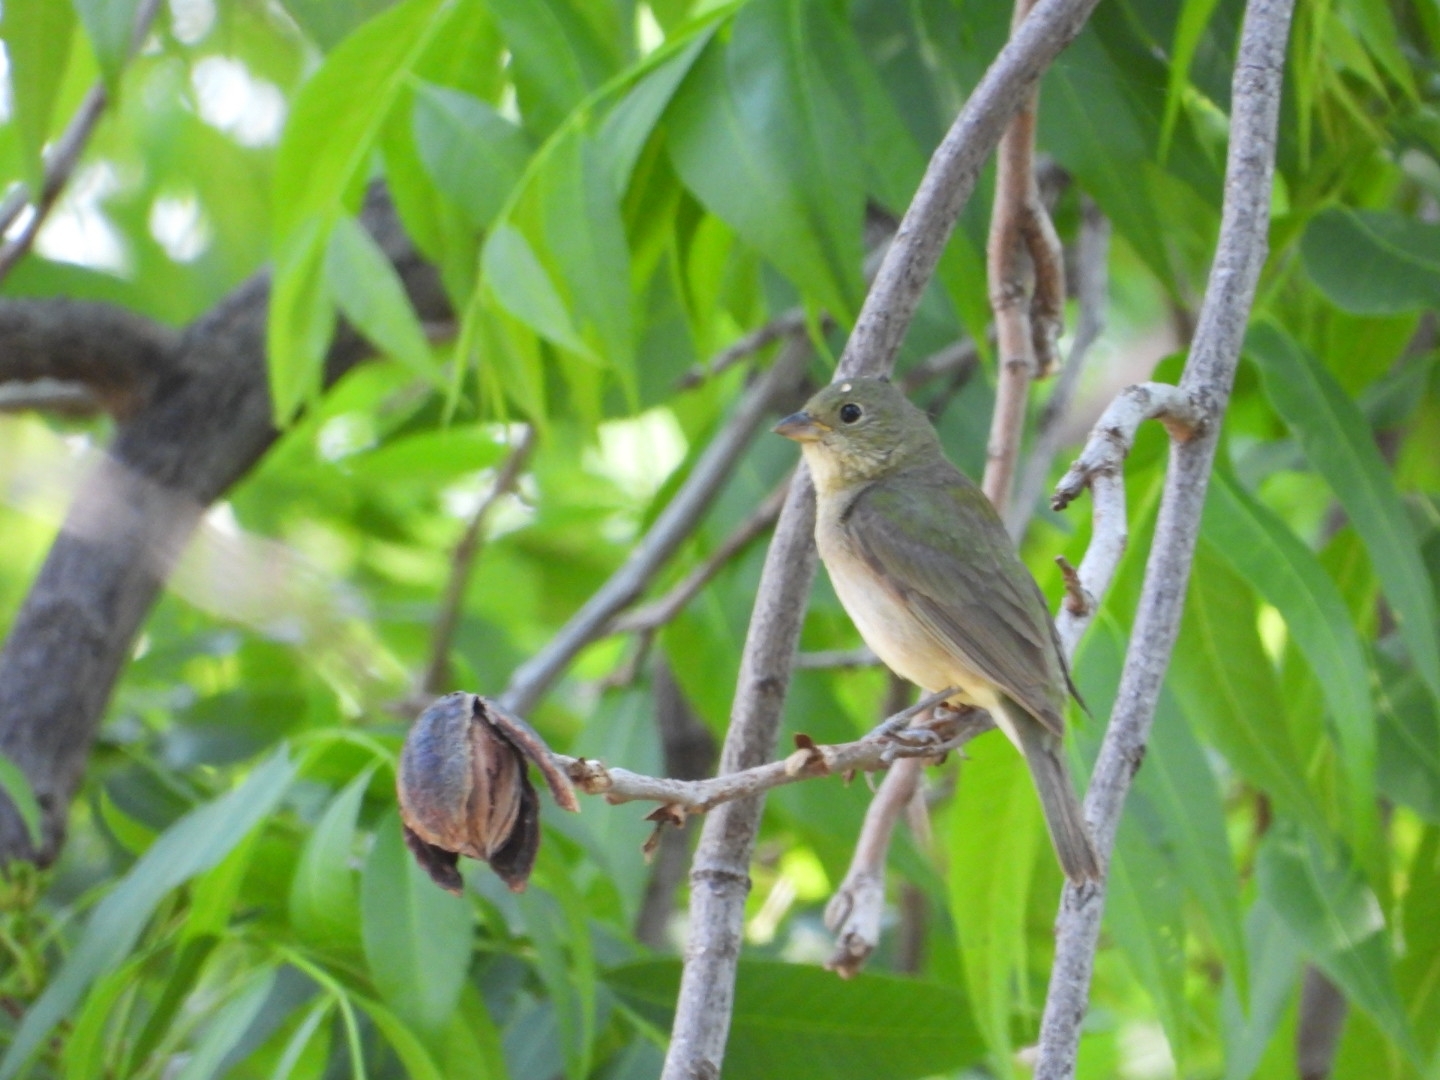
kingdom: Animalia
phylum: Chordata
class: Aves
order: Passeriformes
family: Cardinalidae
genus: Passerina
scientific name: Passerina ciris
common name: Painted bunting
